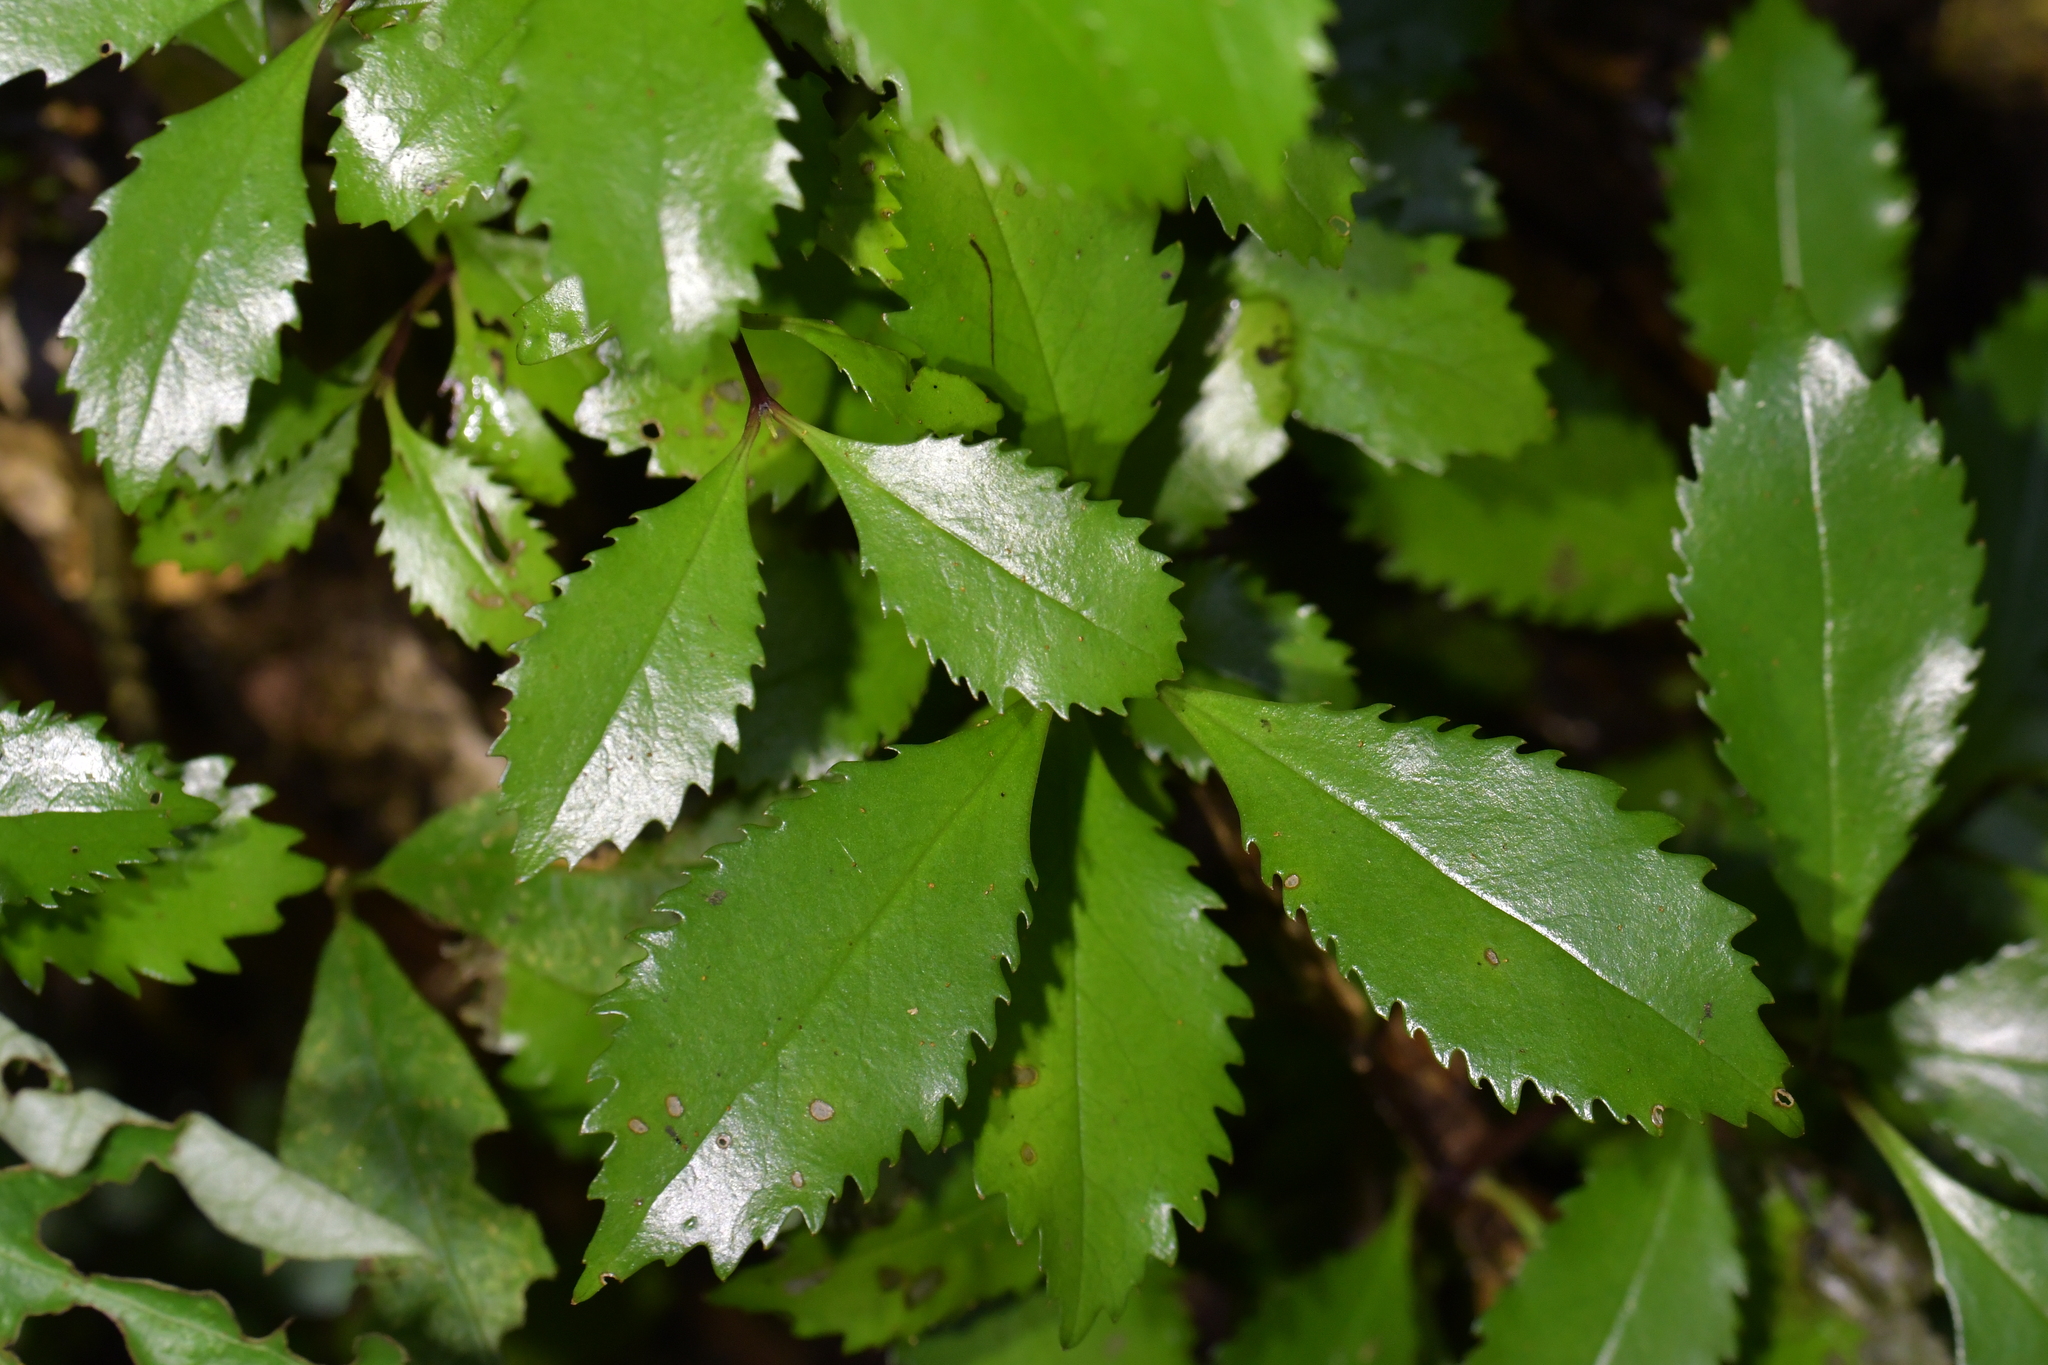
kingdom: Plantae
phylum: Tracheophyta
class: Magnoliopsida
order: Laurales
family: Atherospermataceae
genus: Laurelia
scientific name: Laurelia novae-zelandiae
